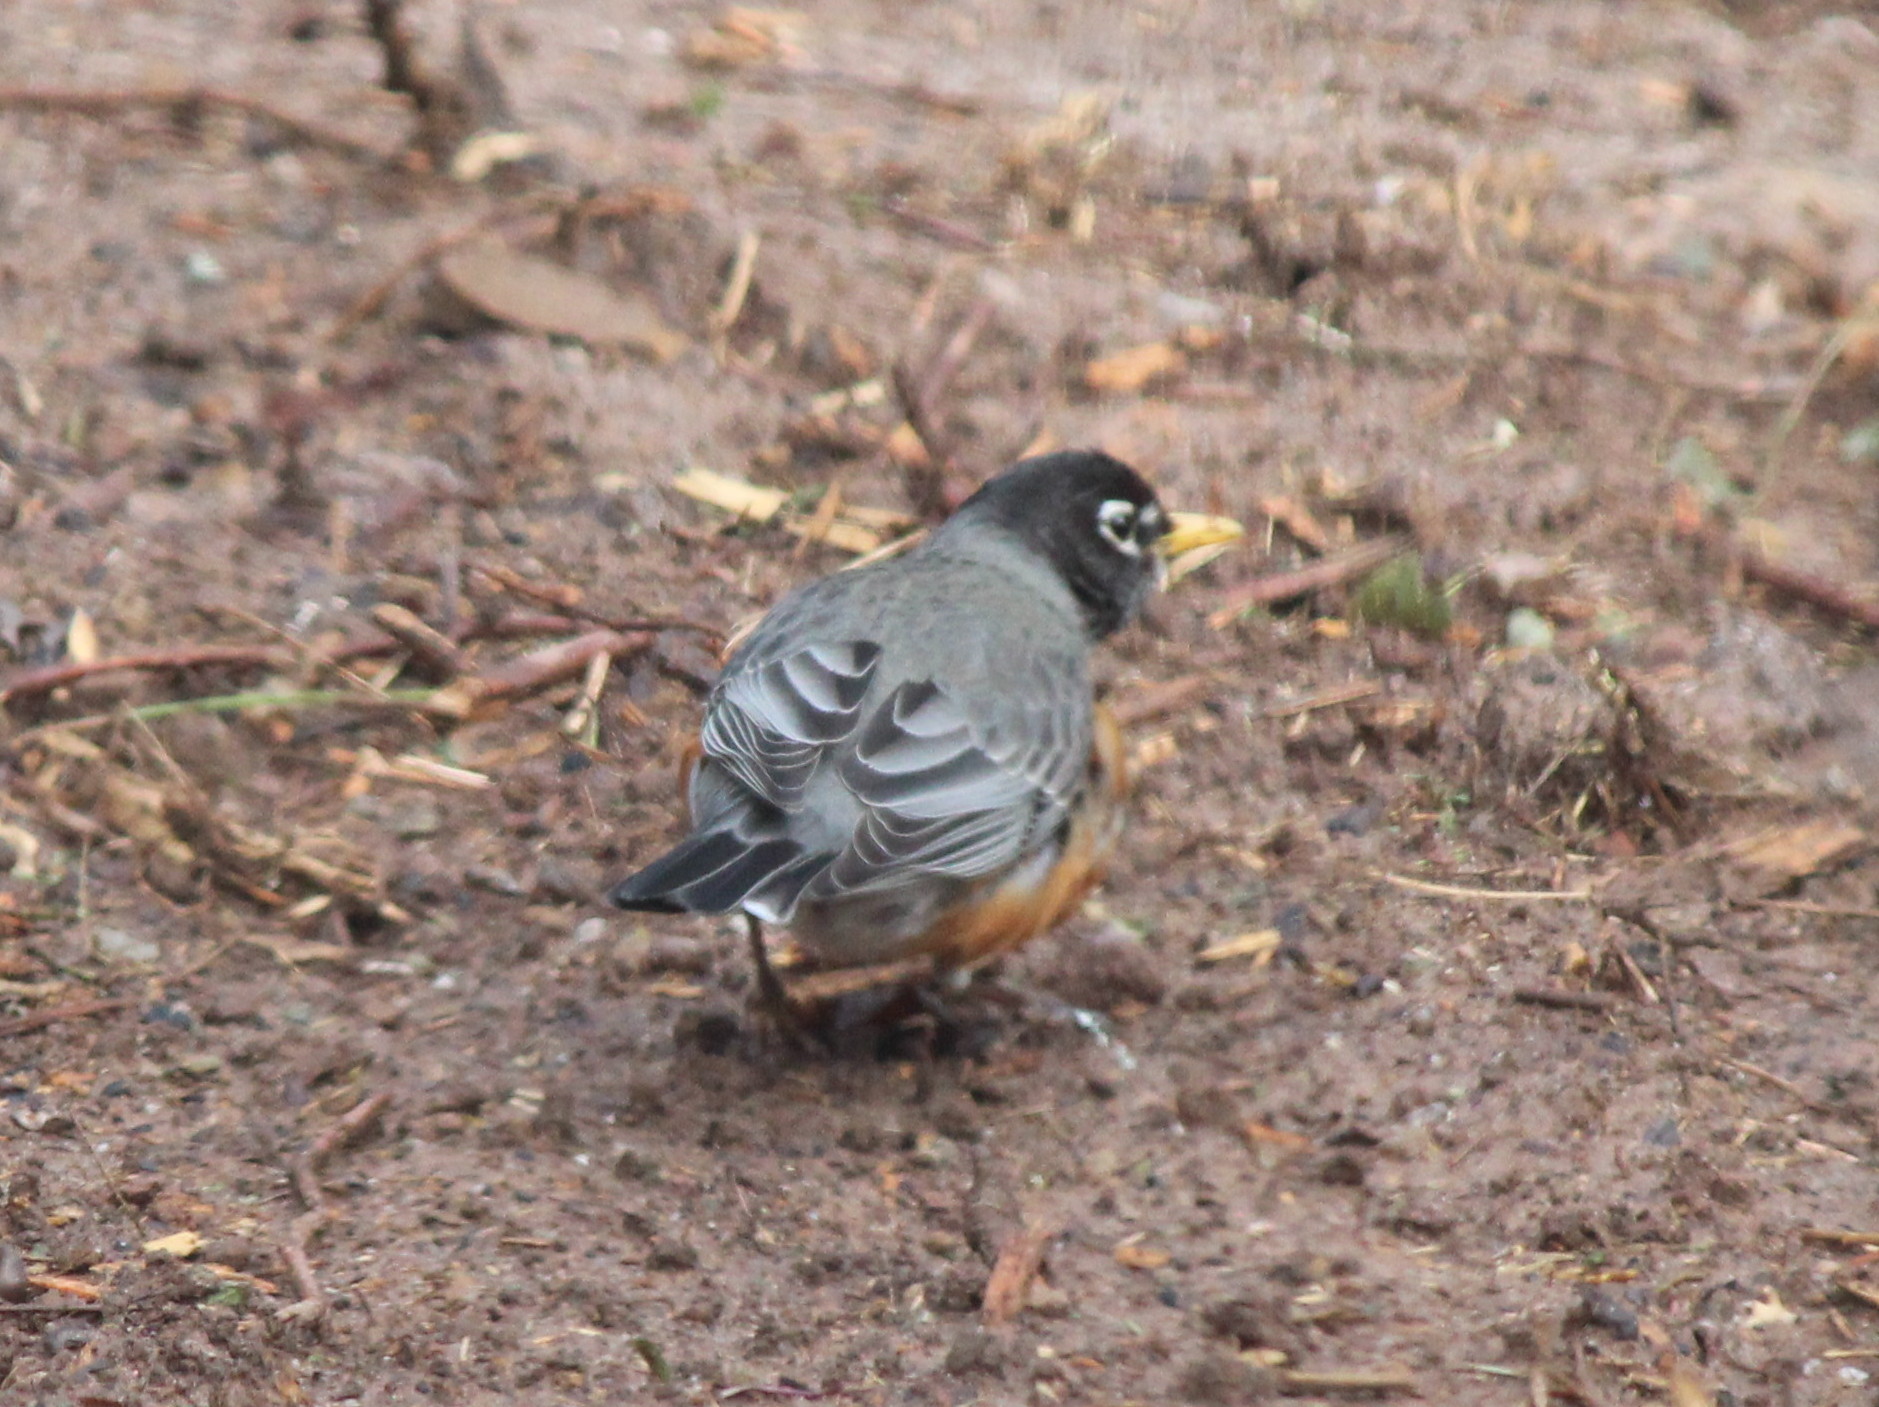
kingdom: Animalia
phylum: Chordata
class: Aves
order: Passeriformes
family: Turdidae
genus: Turdus
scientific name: Turdus migratorius
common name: American robin
